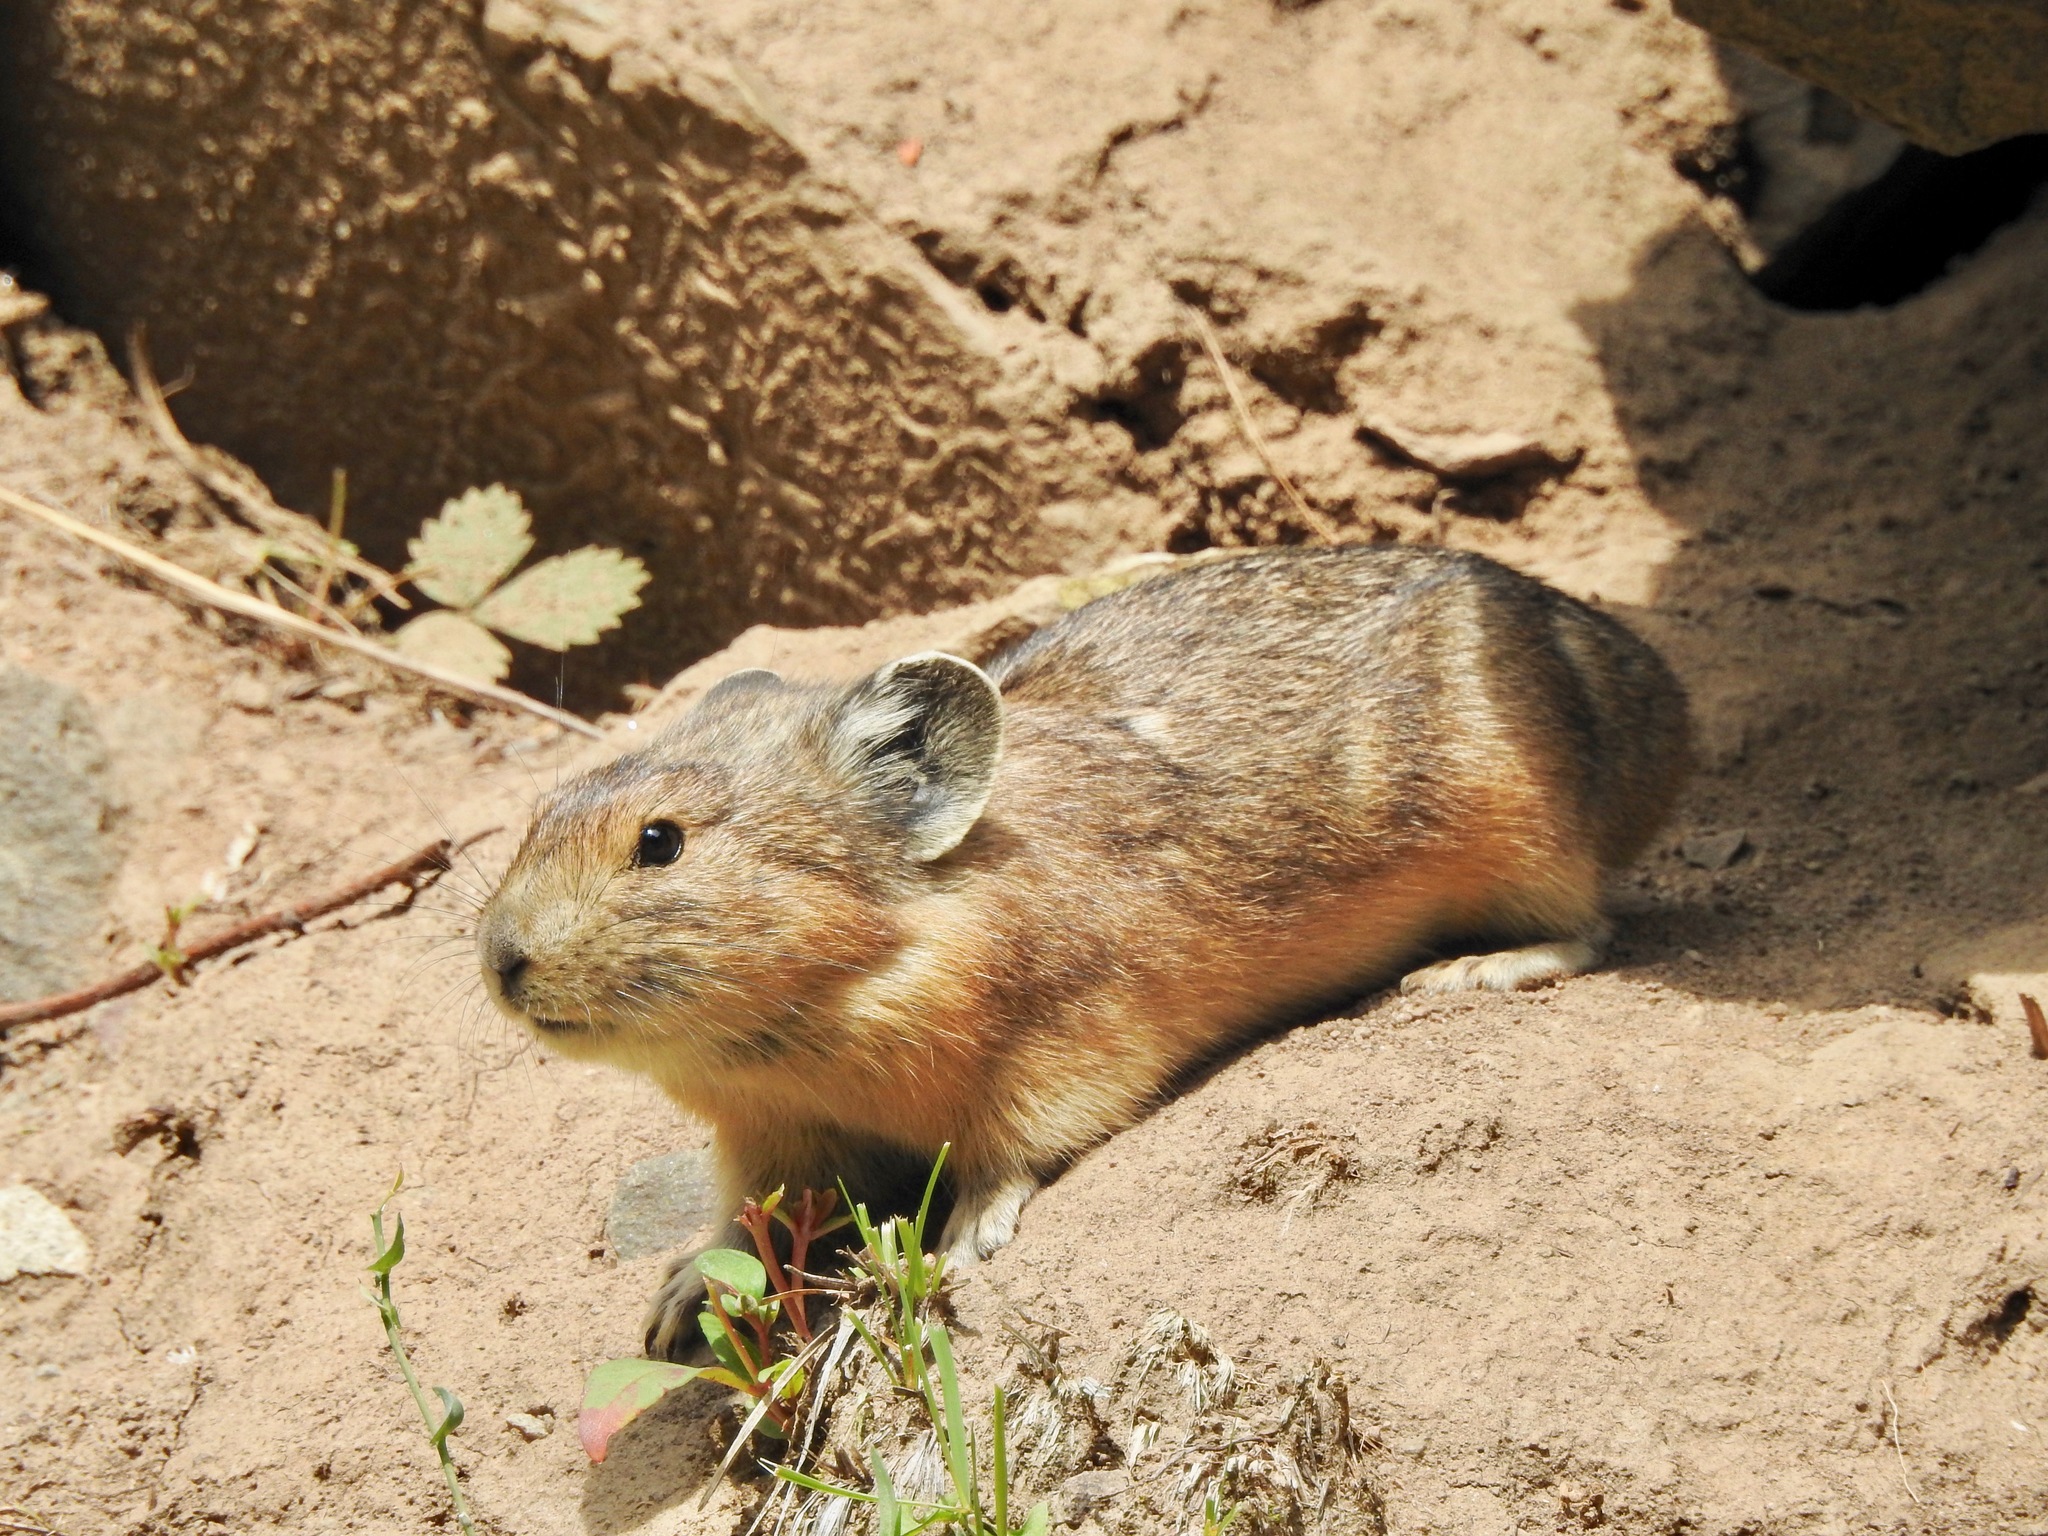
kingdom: Animalia
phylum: Chordata
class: Mammalia
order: Lagomorpha
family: Ochotonidae
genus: Ochotona
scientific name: Ochotona princeps
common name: American pika
